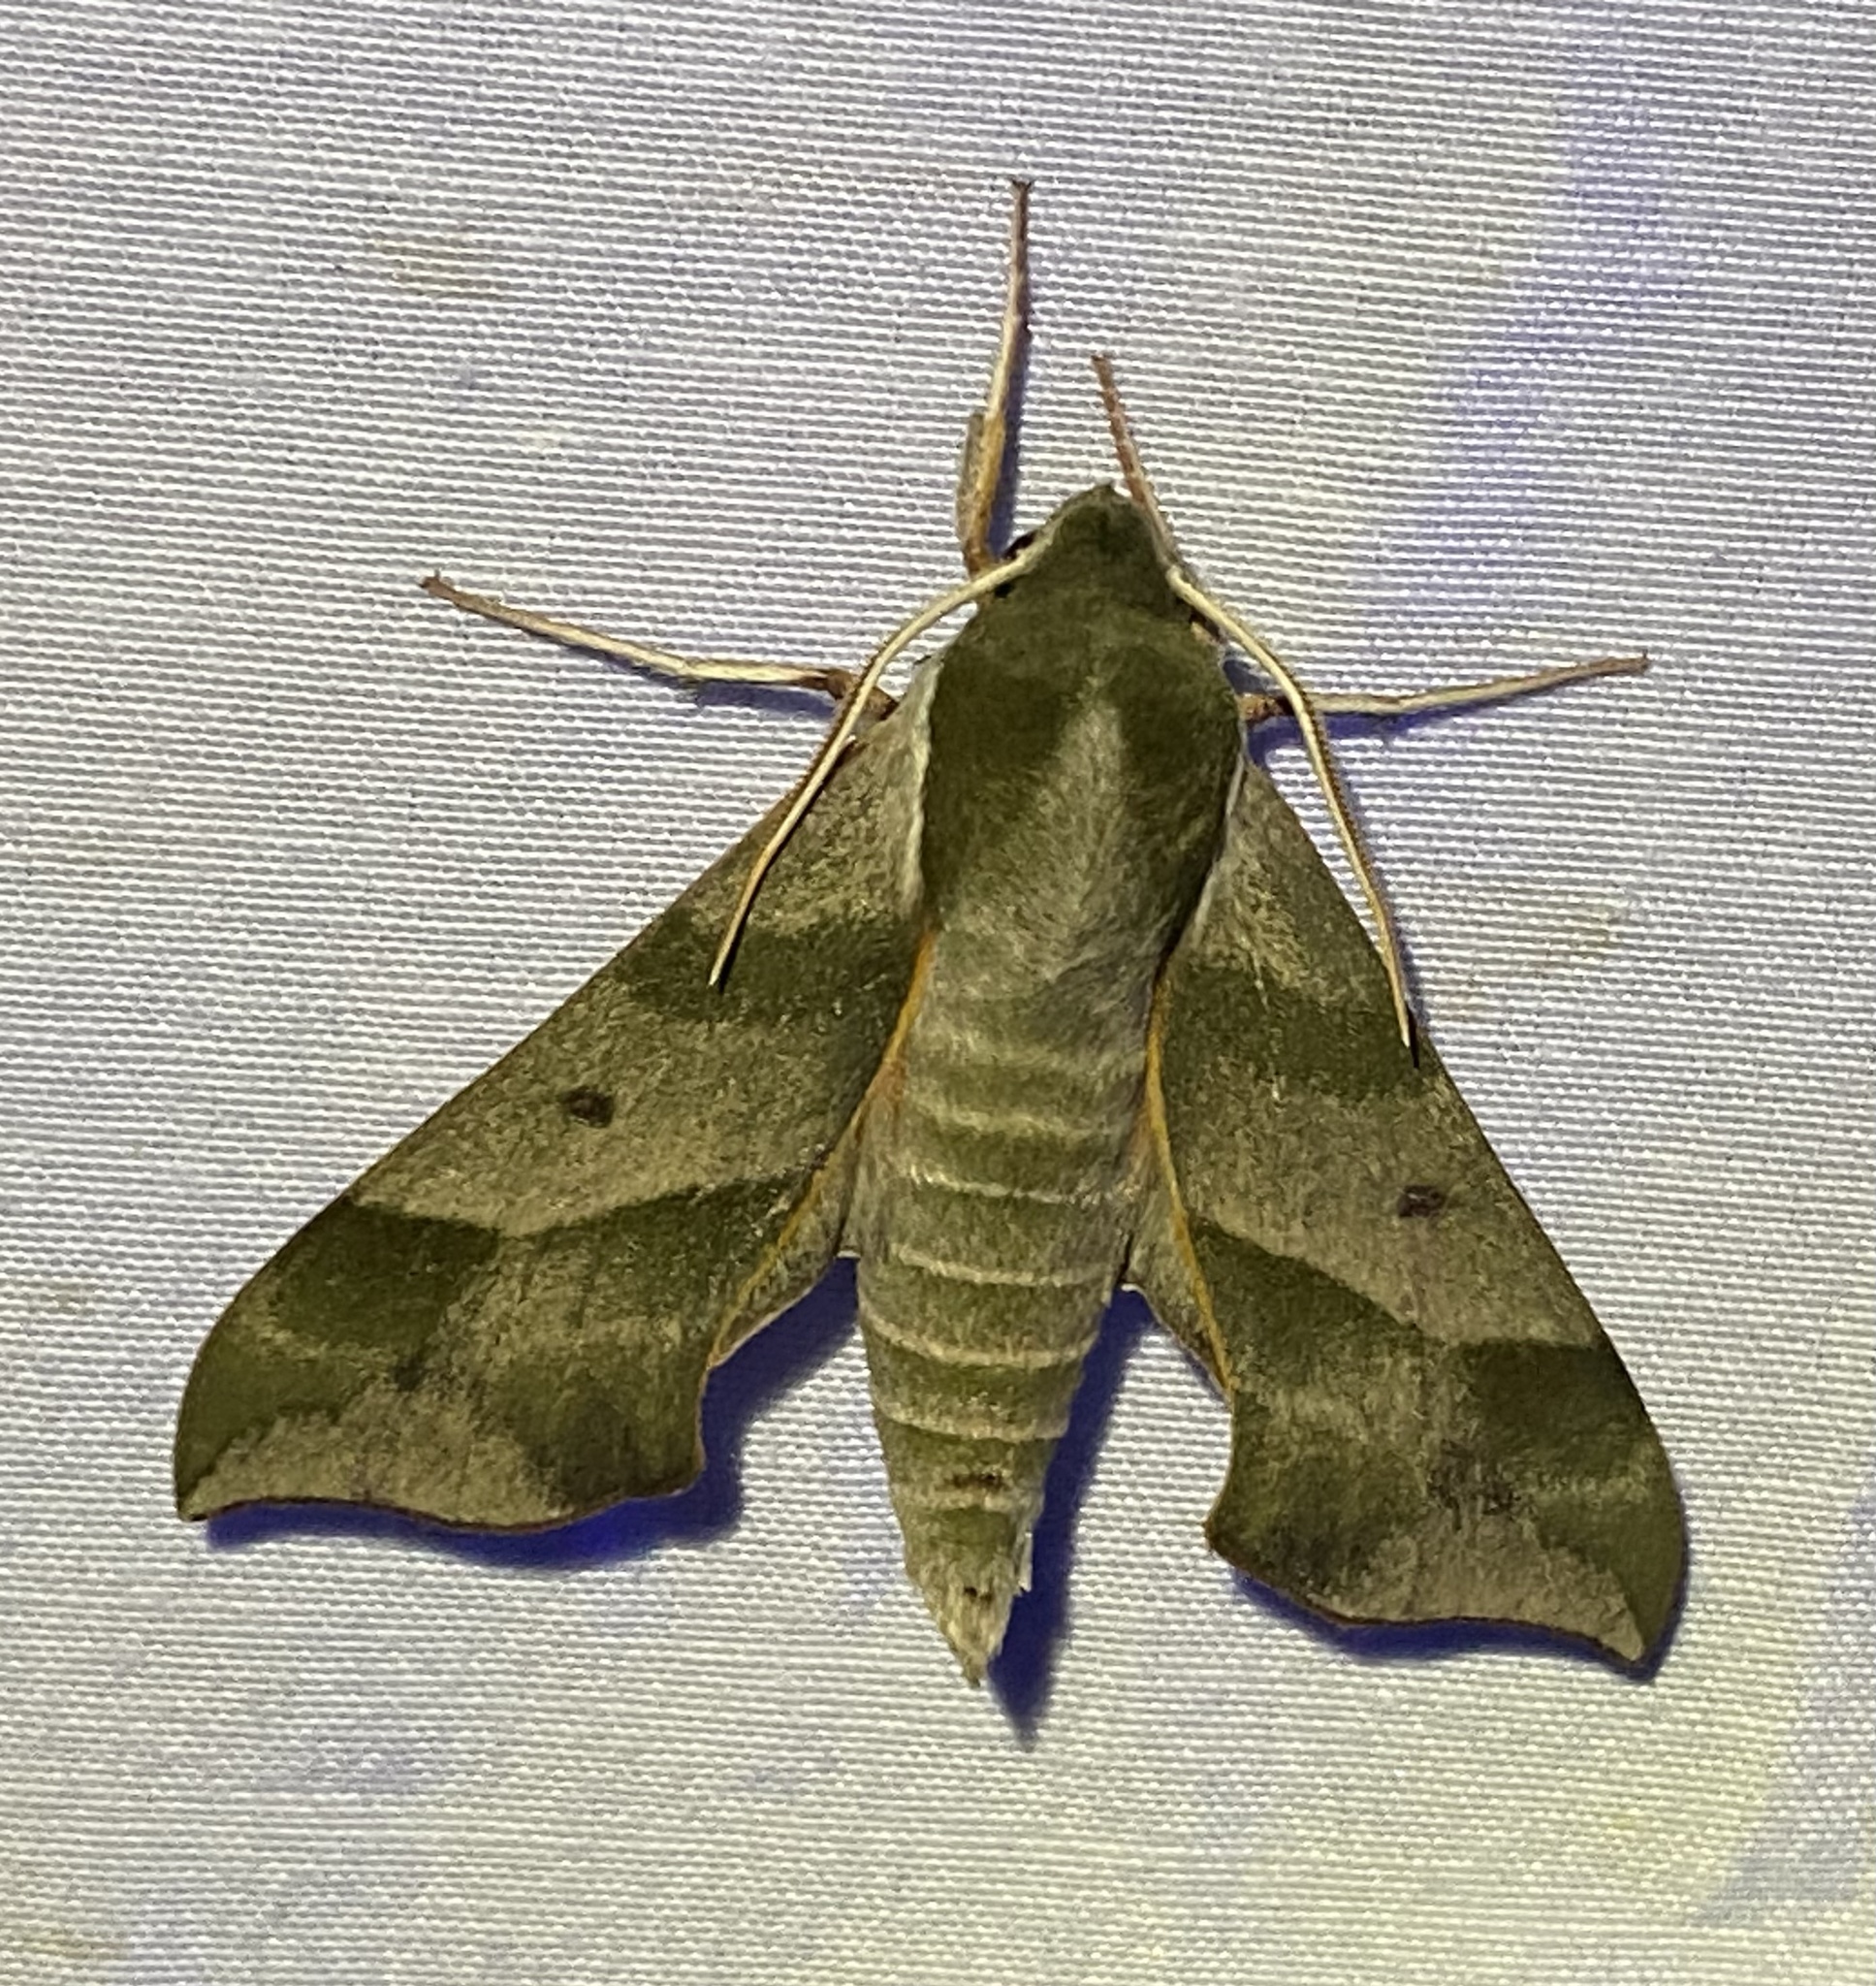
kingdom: Animalia
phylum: Arthropoda
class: Insecta
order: Lepidoptera
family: Sphingidae
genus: Darapsa
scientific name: Darapsa myron
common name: Hog sphinx
